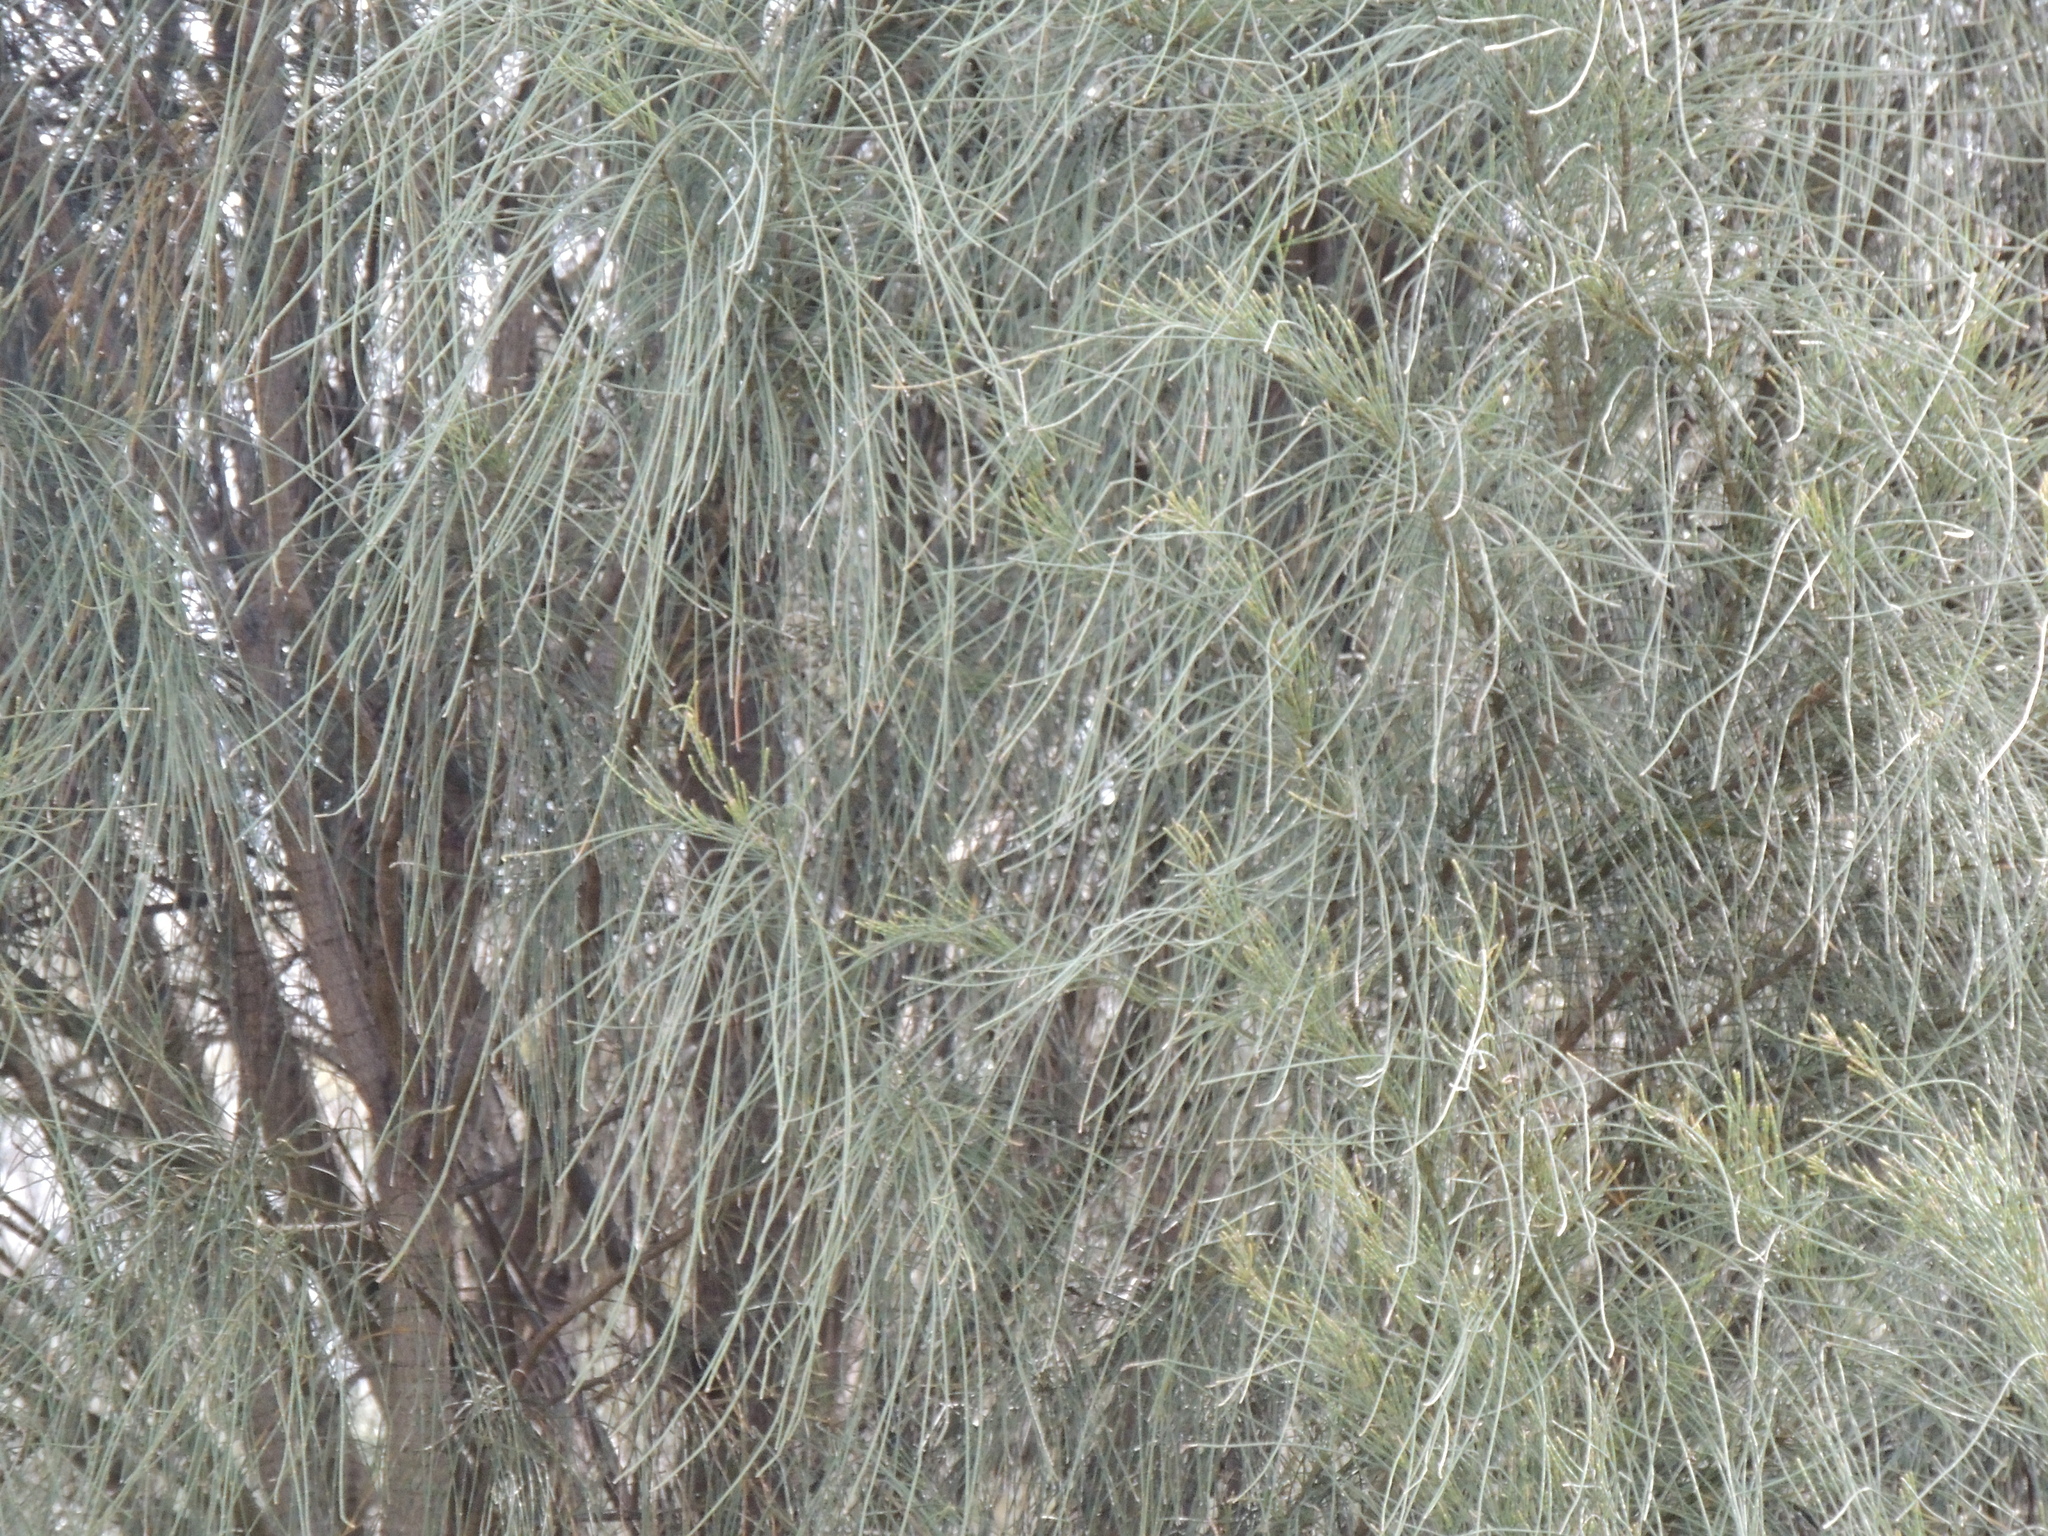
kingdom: Plantae
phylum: Tracheophyta
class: Magnoliopsida
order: Fagales
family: Casuarinaceae
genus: Allocasuarina
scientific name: Allocasuarina verticillata
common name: Drooping she-oak
